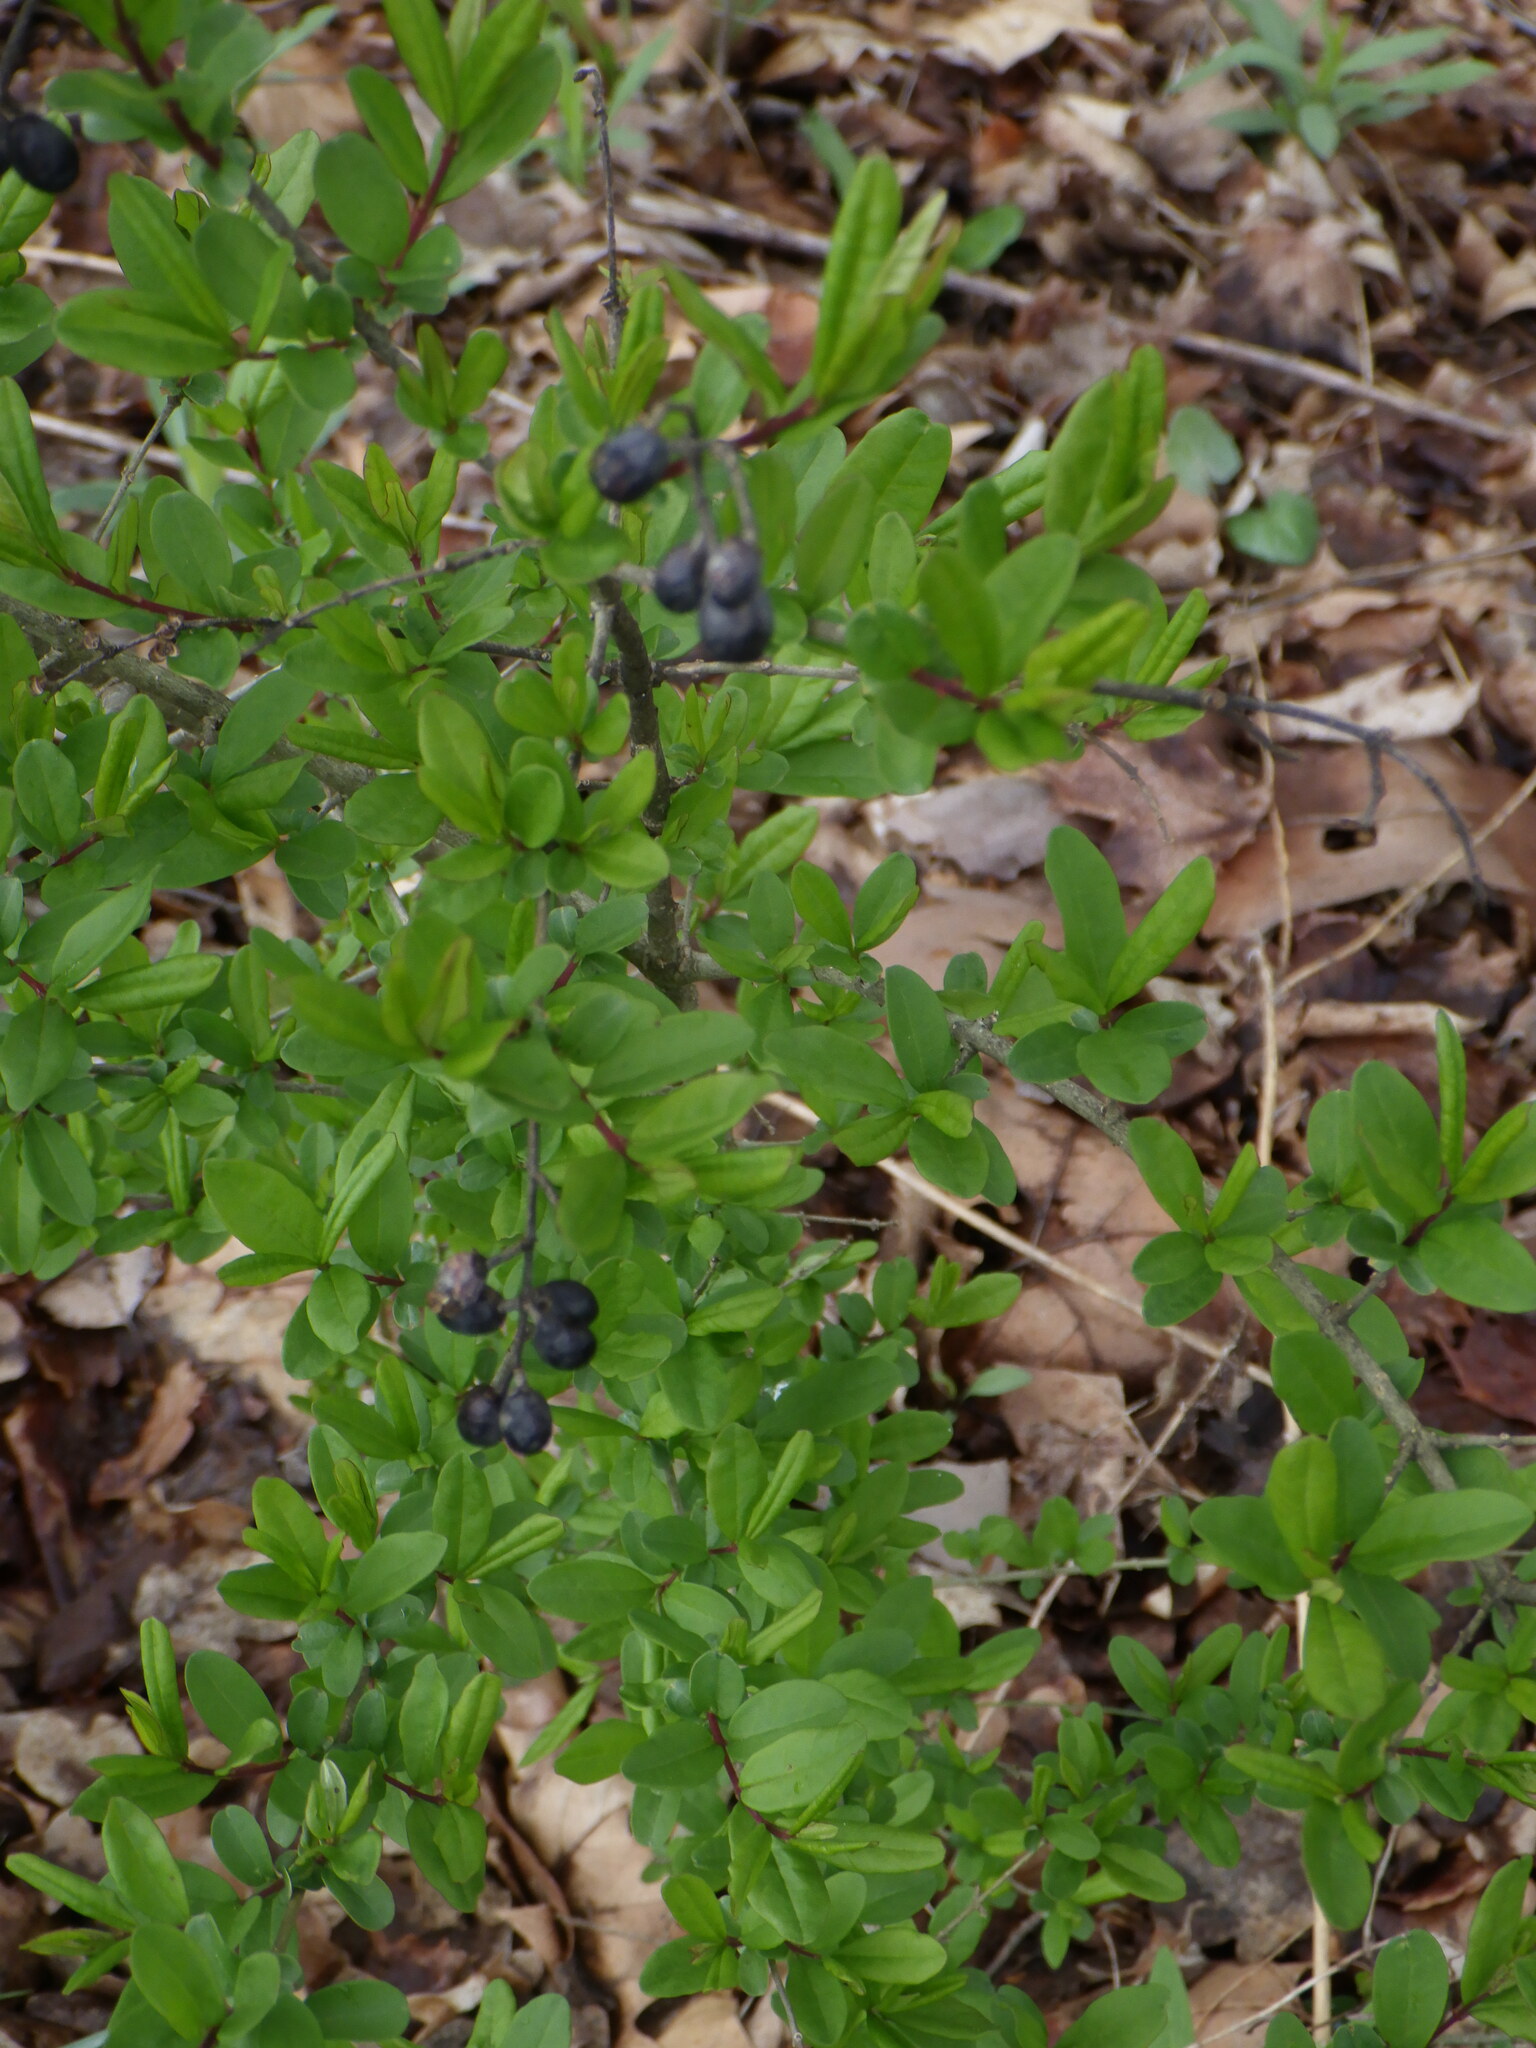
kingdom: Plantae
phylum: Tracheophyta
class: Magnoliopsida
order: Lamiales
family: Oleaceae
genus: Ligustrum
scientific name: Ligustrum obtusifolium
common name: Border privet
